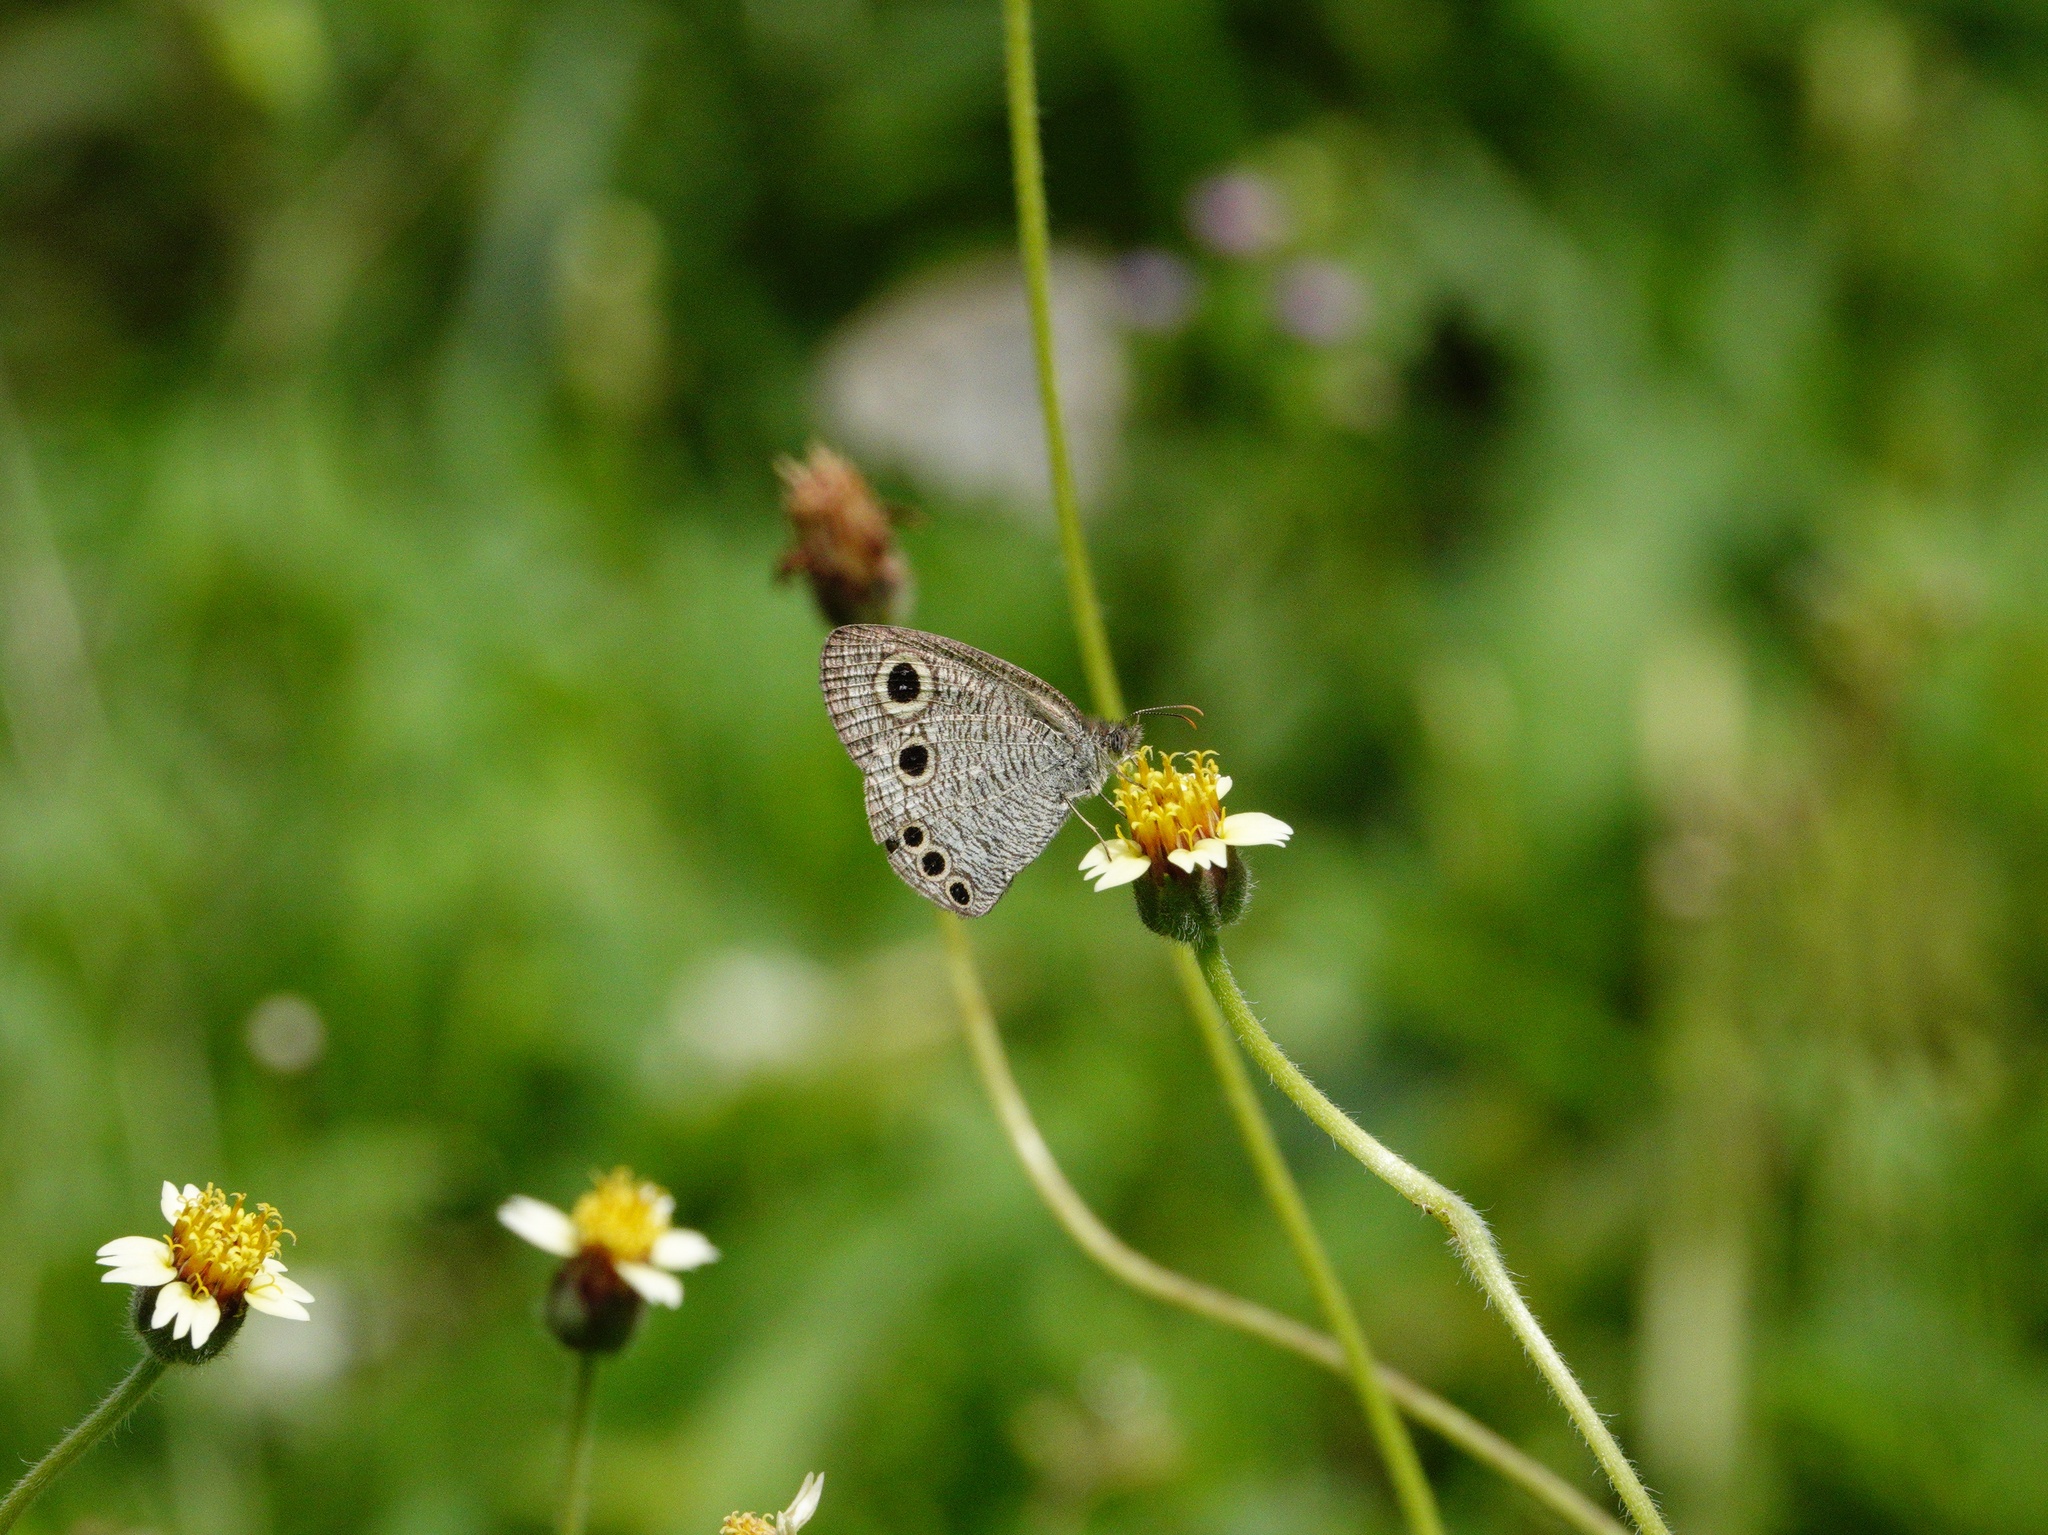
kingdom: Animalia
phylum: Arthropoda
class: Insecta
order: Lepidoptera
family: Nymphalidae
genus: Ypthima
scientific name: Ypthima huebneri
